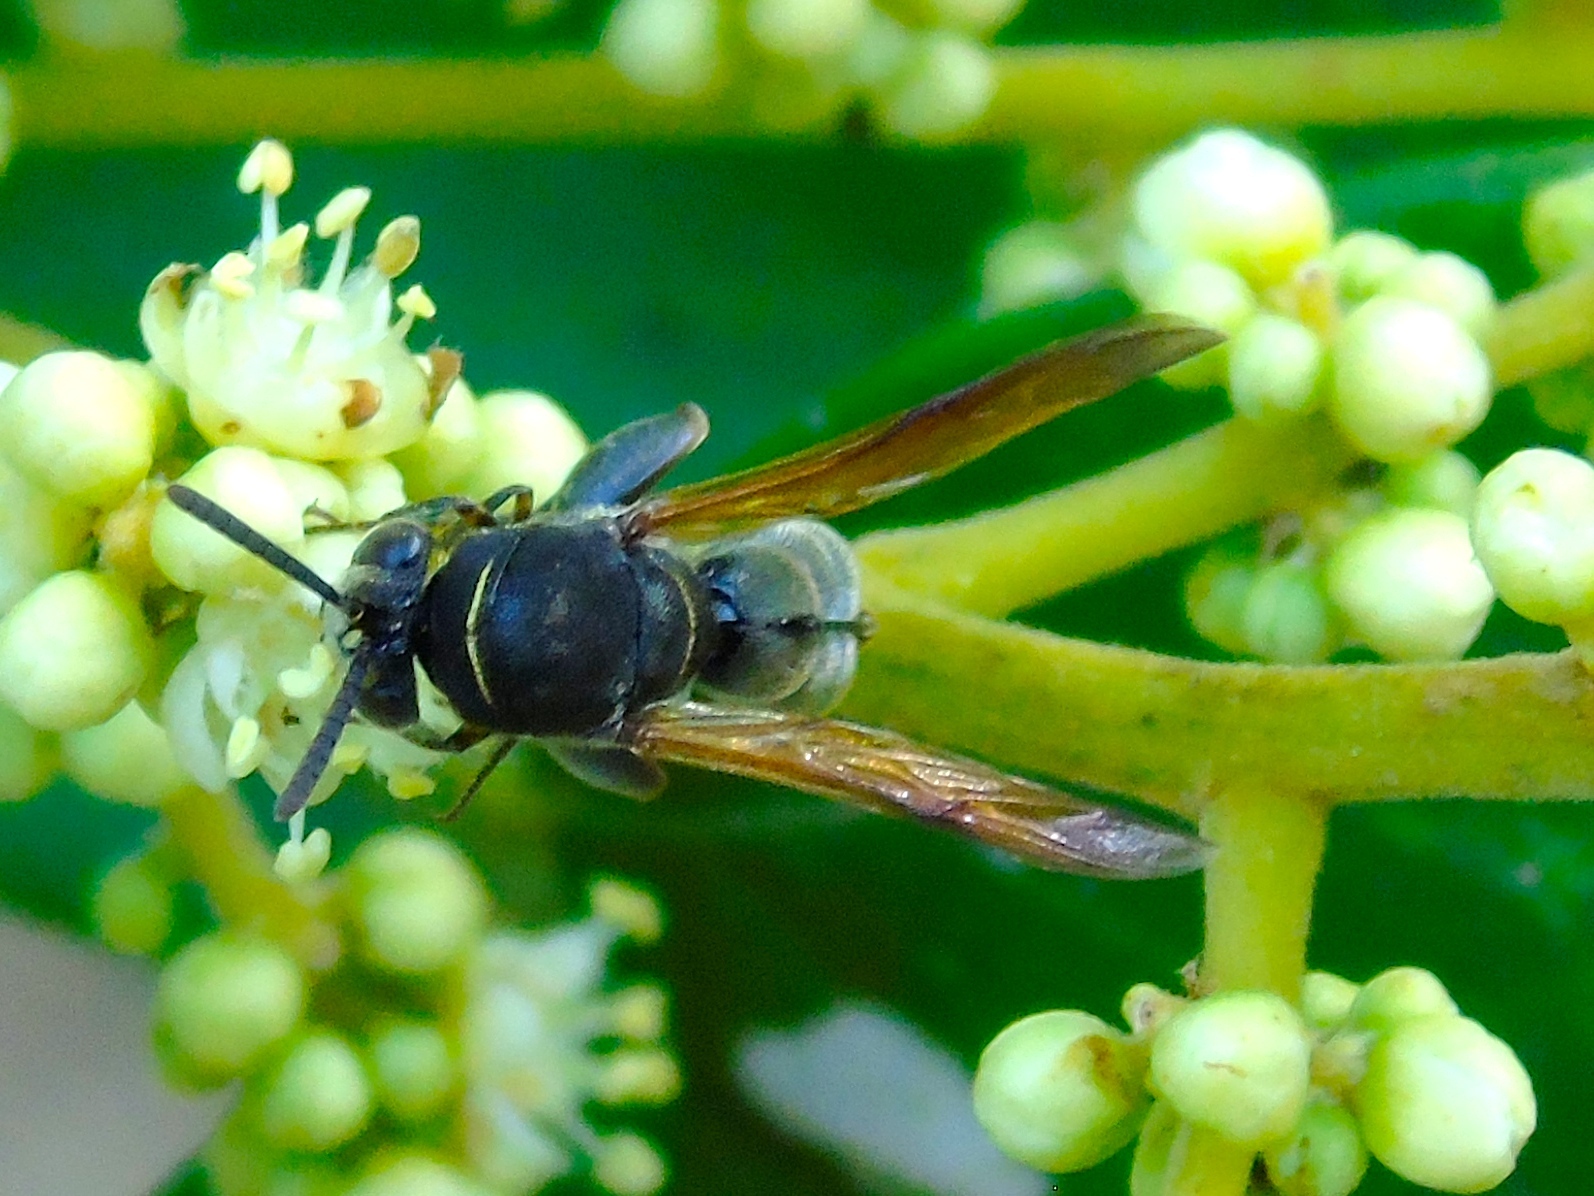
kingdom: Animalia
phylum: Arthropoda
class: Insecta
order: Hymenoptera
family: Leucospidae
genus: Leucospis
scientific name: Leucospis azteca
